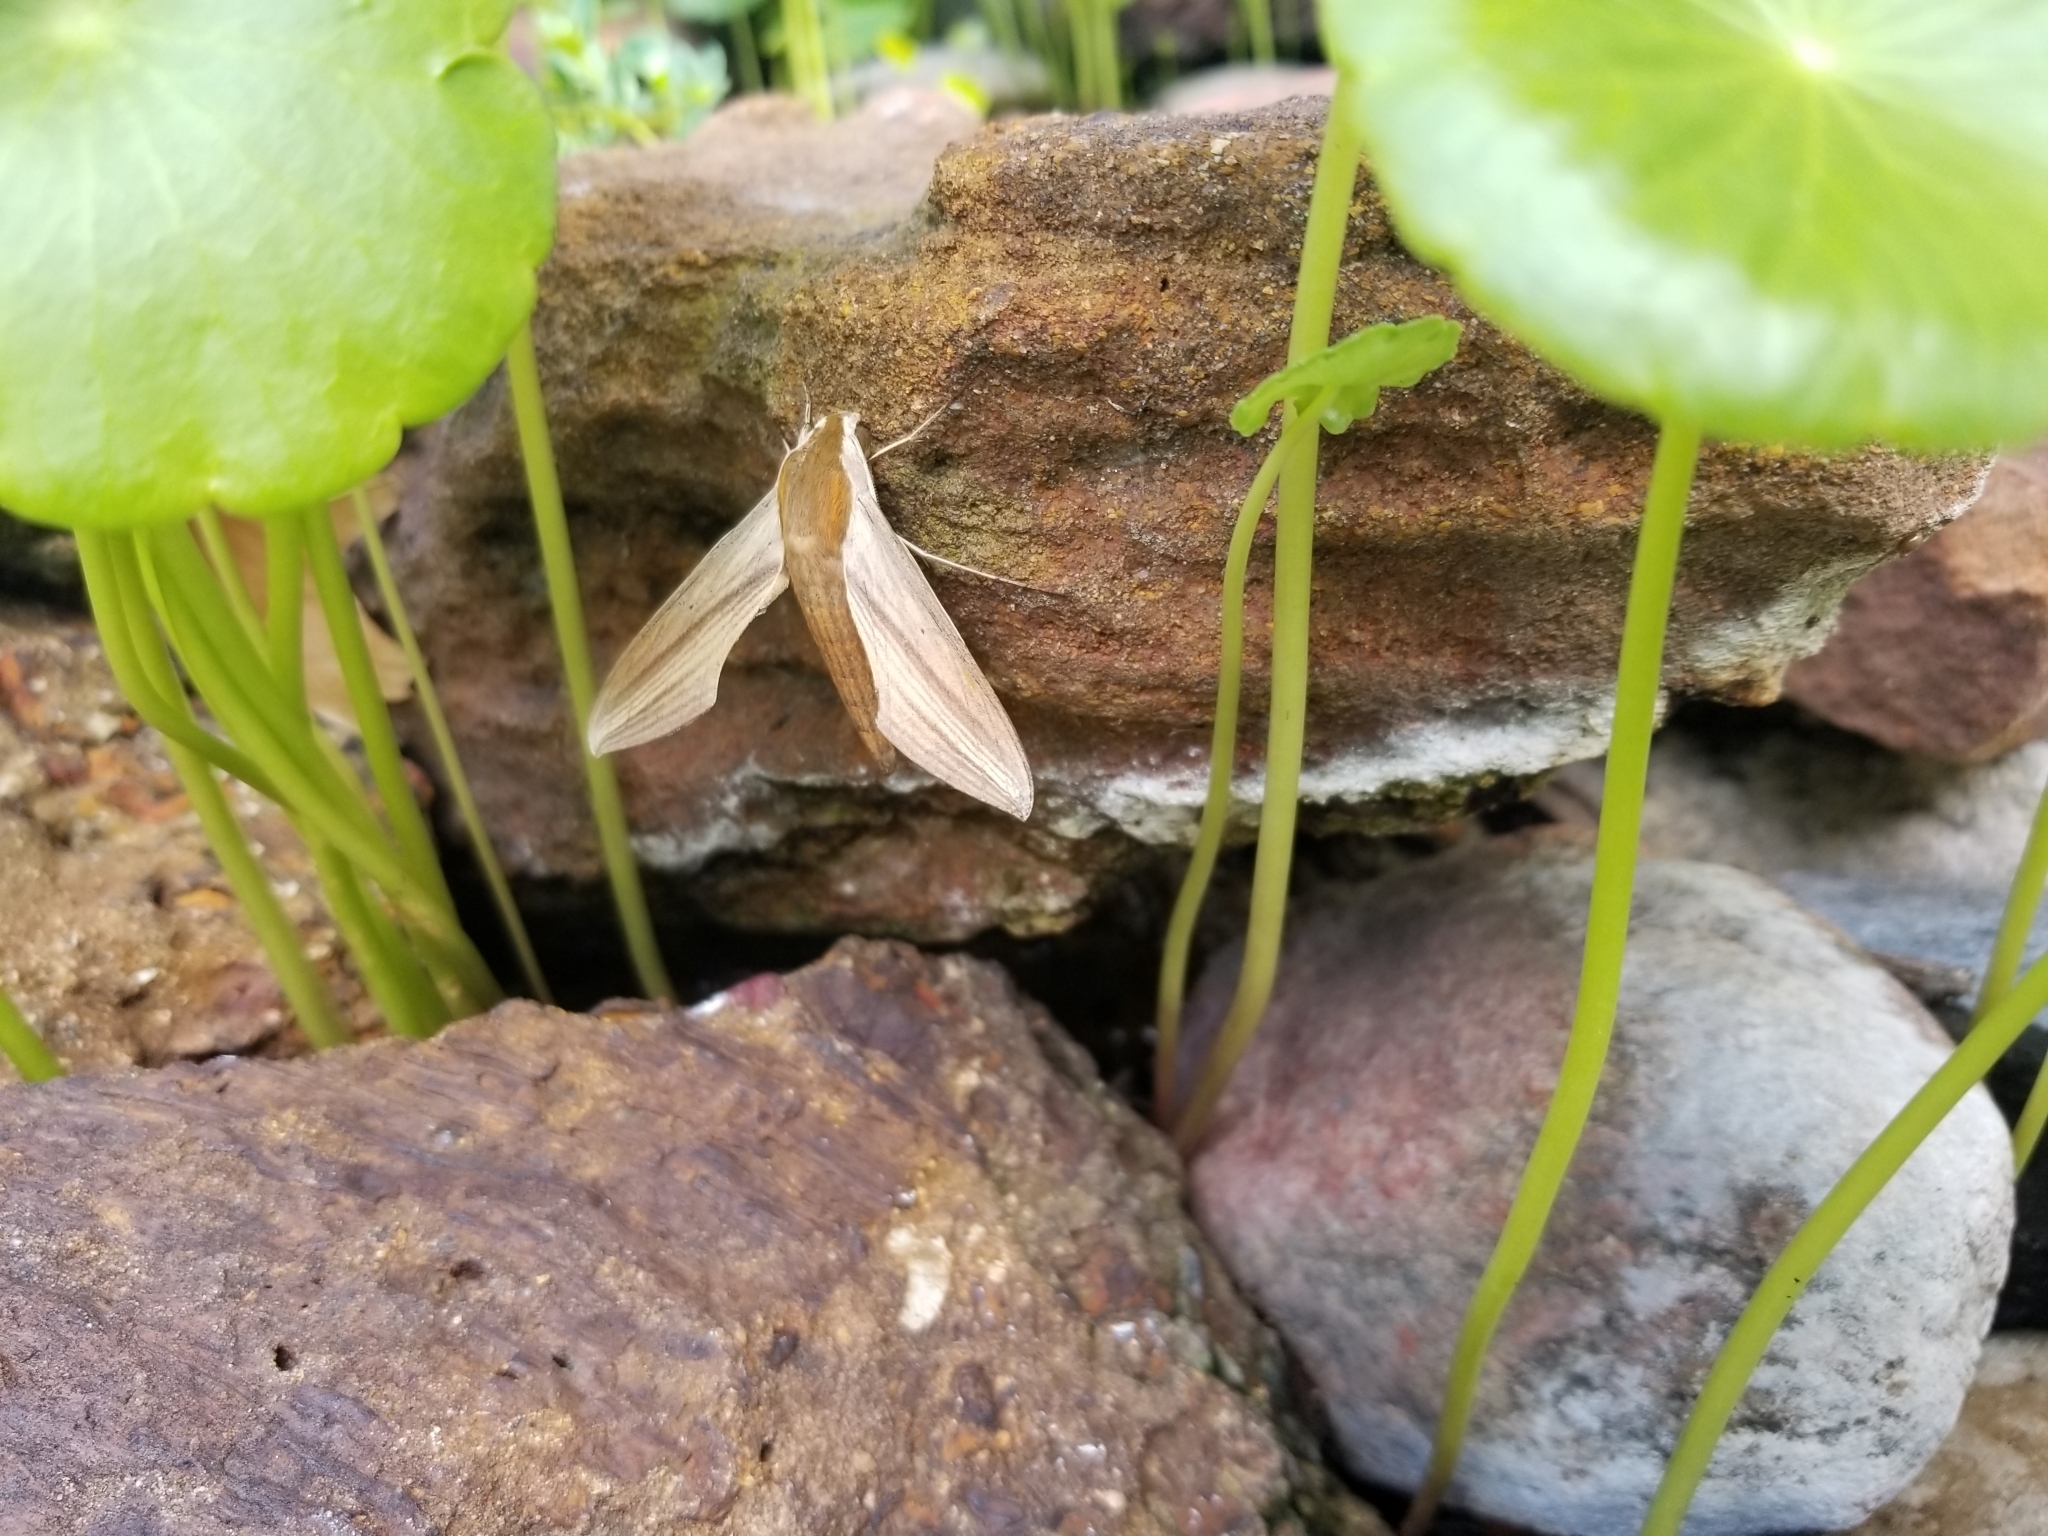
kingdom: Animalia
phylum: Arthropoda
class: Insecta
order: Lepidoptera
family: Sphingidae
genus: Xylophanes
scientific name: Xylophanes tersa
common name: Tersa sphinx
